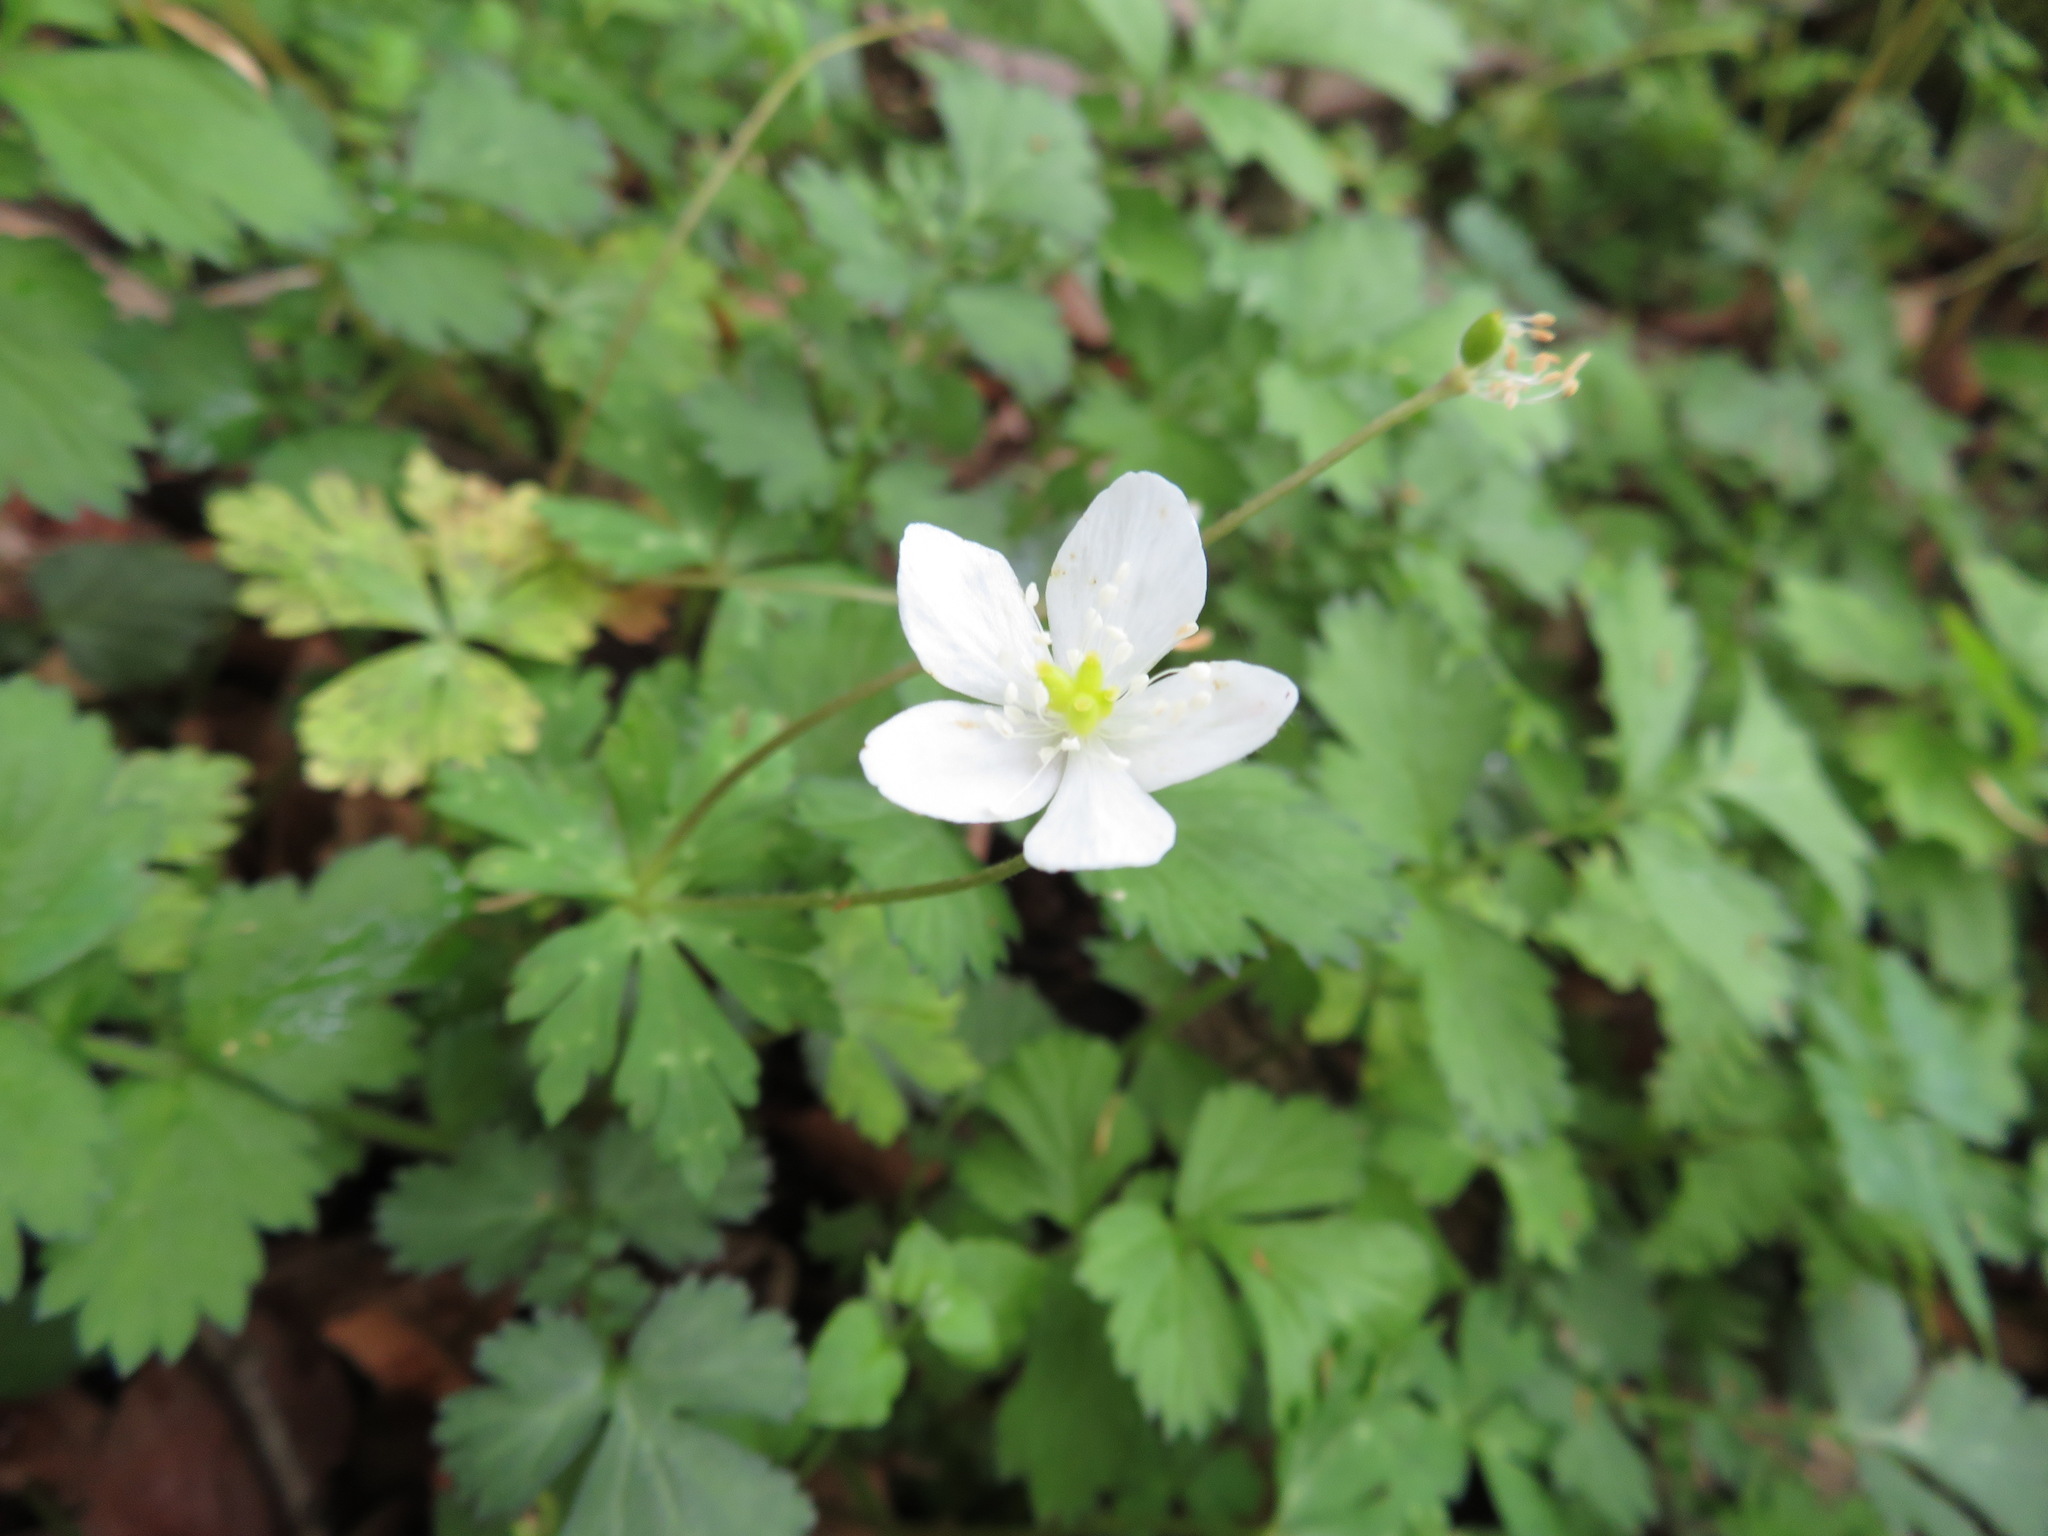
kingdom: Plantae
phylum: Tracheophyta
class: Magnoliopsida
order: Ranunculales
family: Ranunculaceae
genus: Anemonastrum
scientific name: Anemonastrum flaccidum
